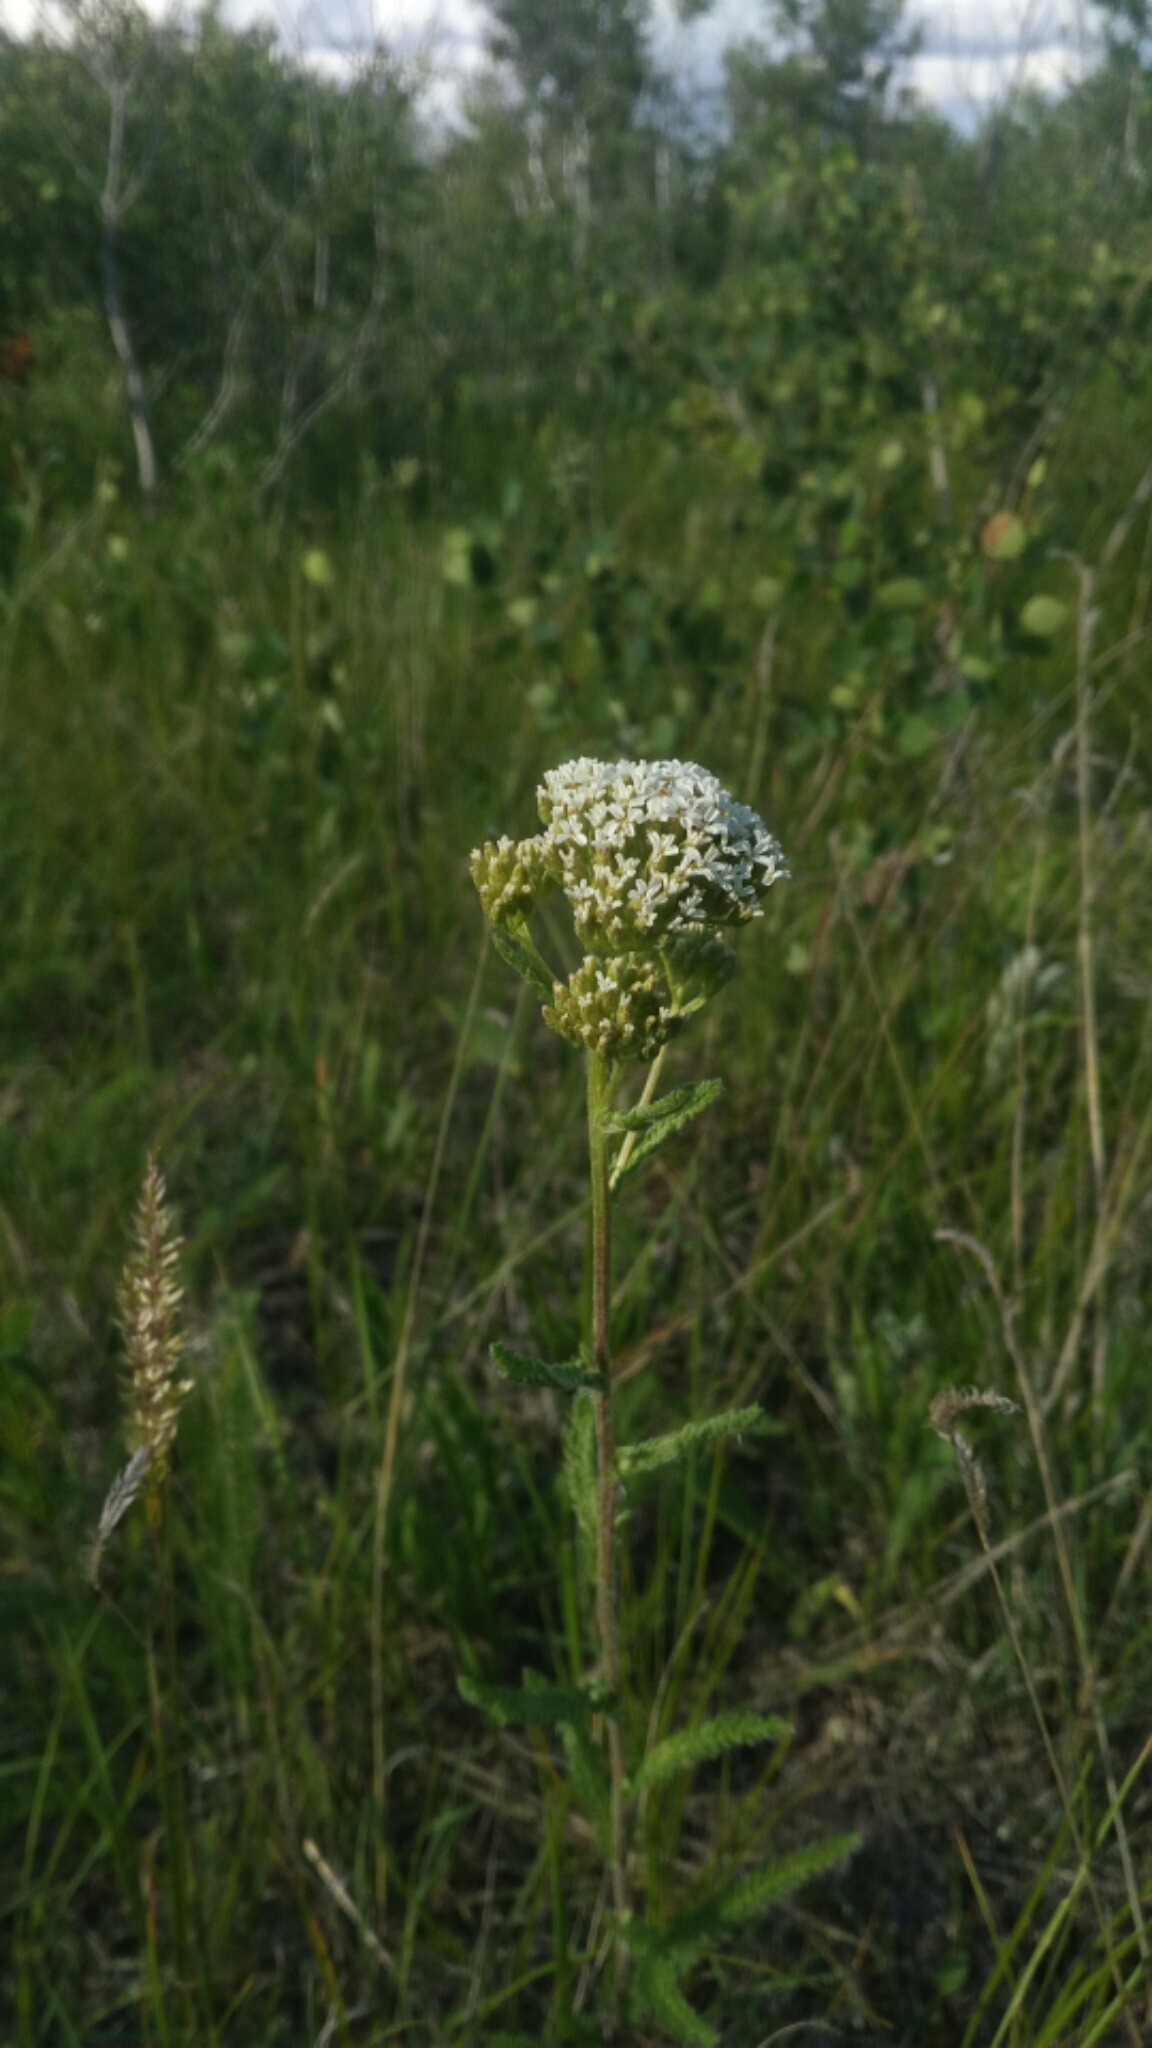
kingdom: Plantae
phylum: Tracheophyta
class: Magnoliopsida
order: Asterales
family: Asteraceae
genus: Achillea
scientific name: Achillea millefolium
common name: Yarrow
